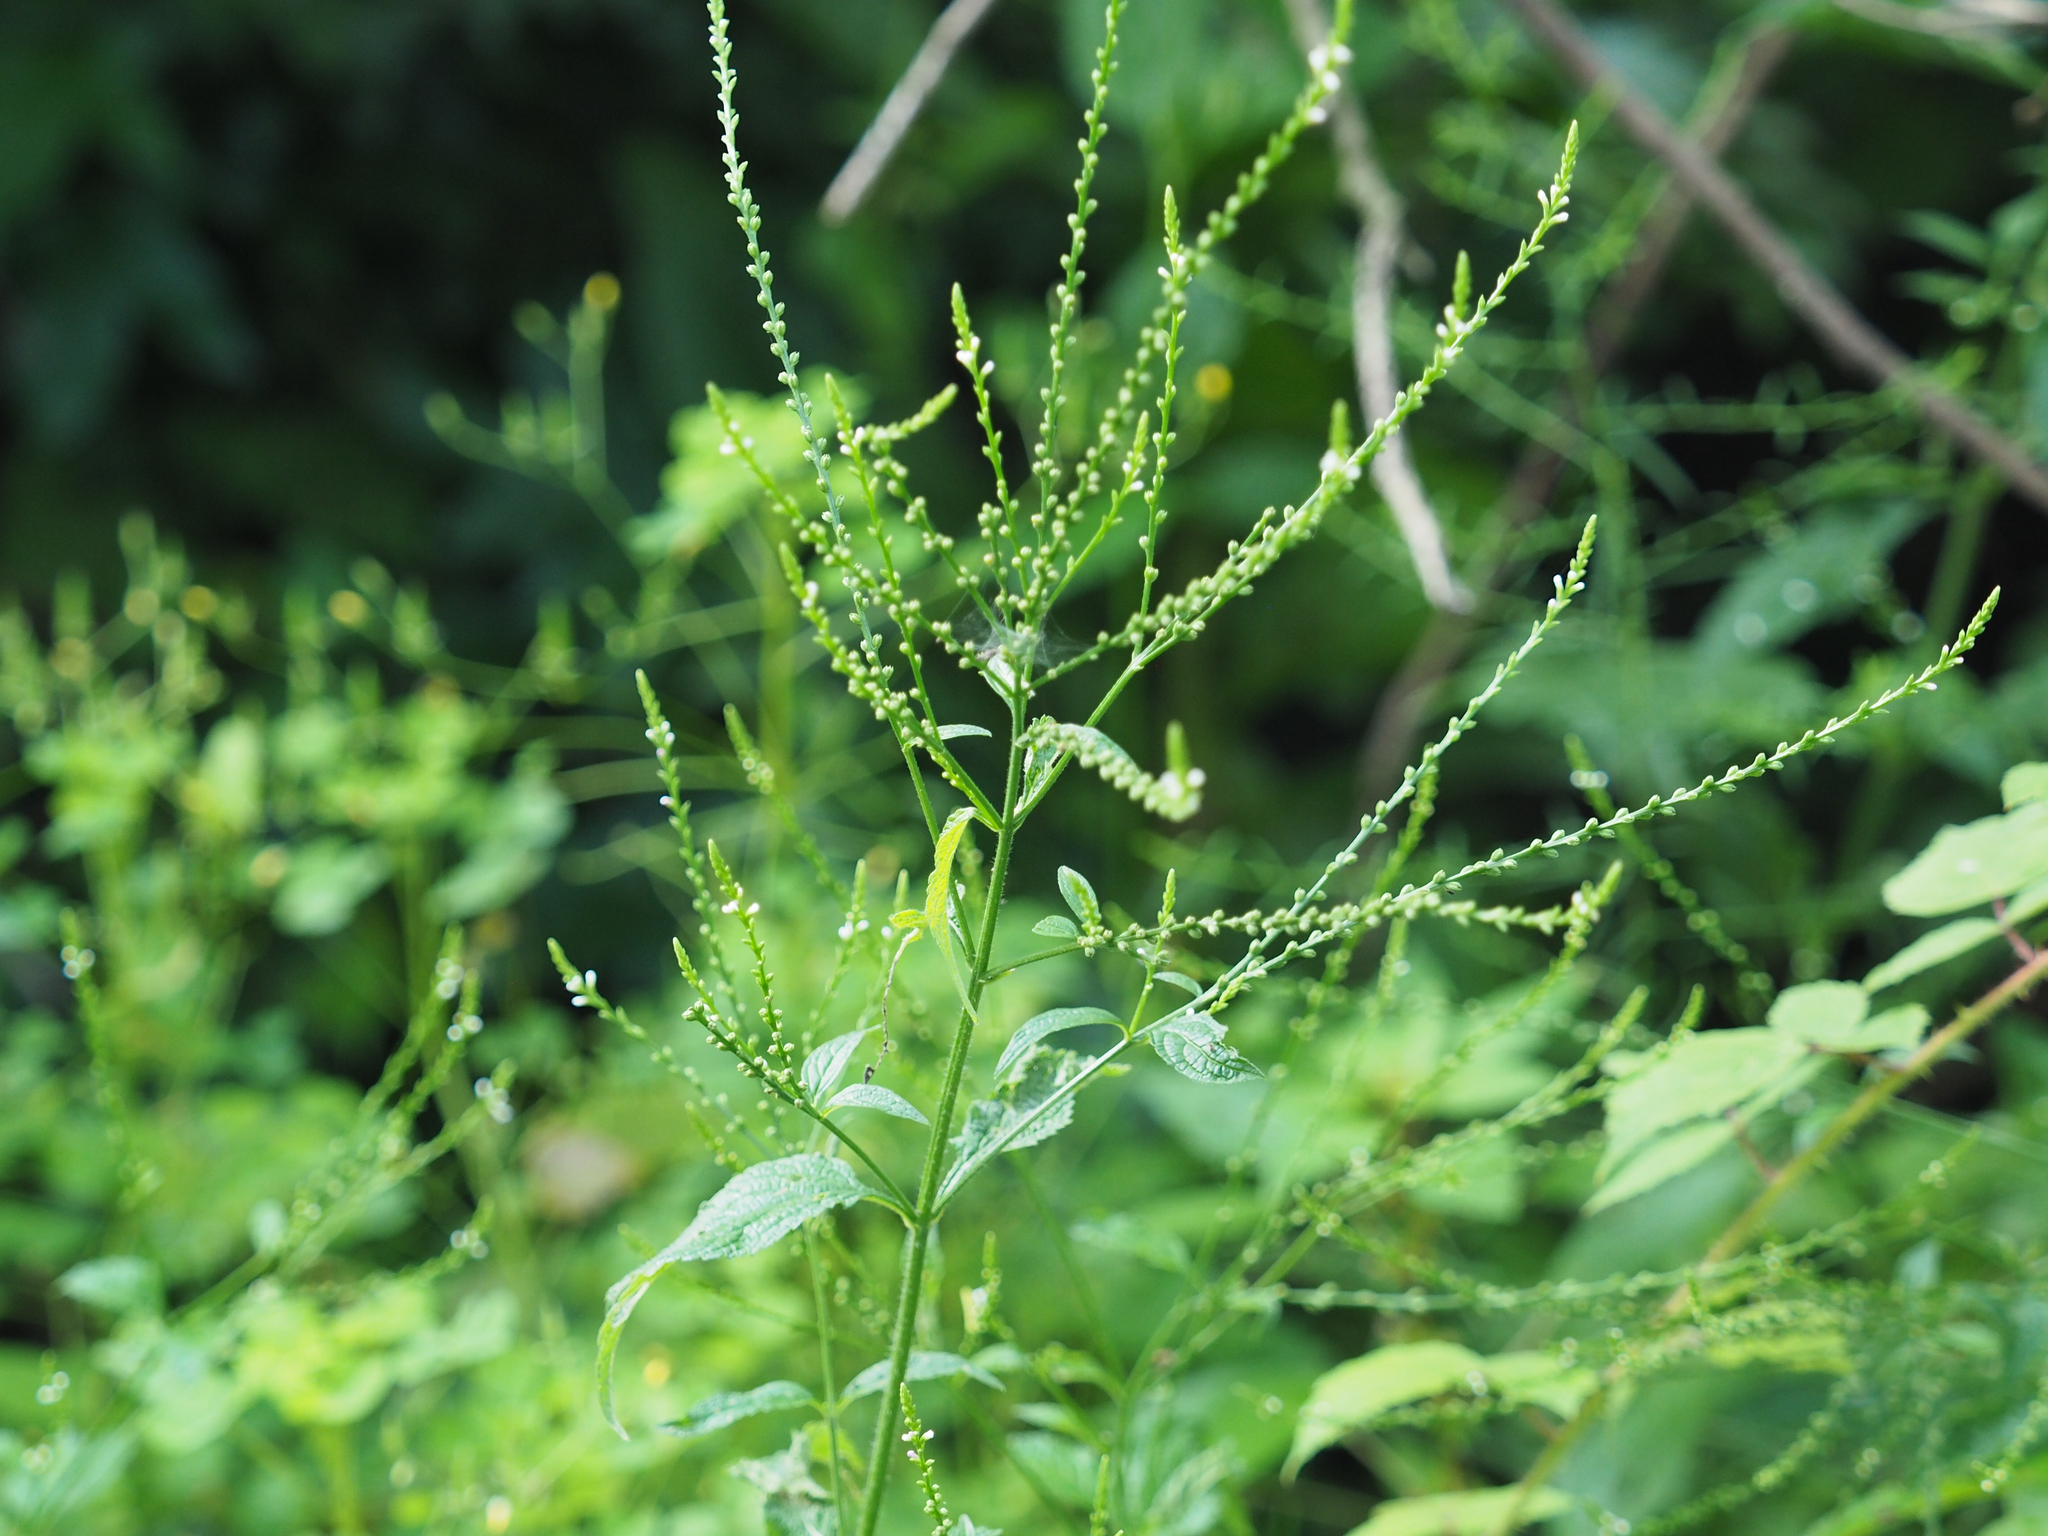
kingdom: Plantae
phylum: Tracheophyta
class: Magnoliopsida
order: Lamiales
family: Verbenaceae
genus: Verbena
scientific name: Verbena urticifolia
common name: Nettle-leaved vervain
